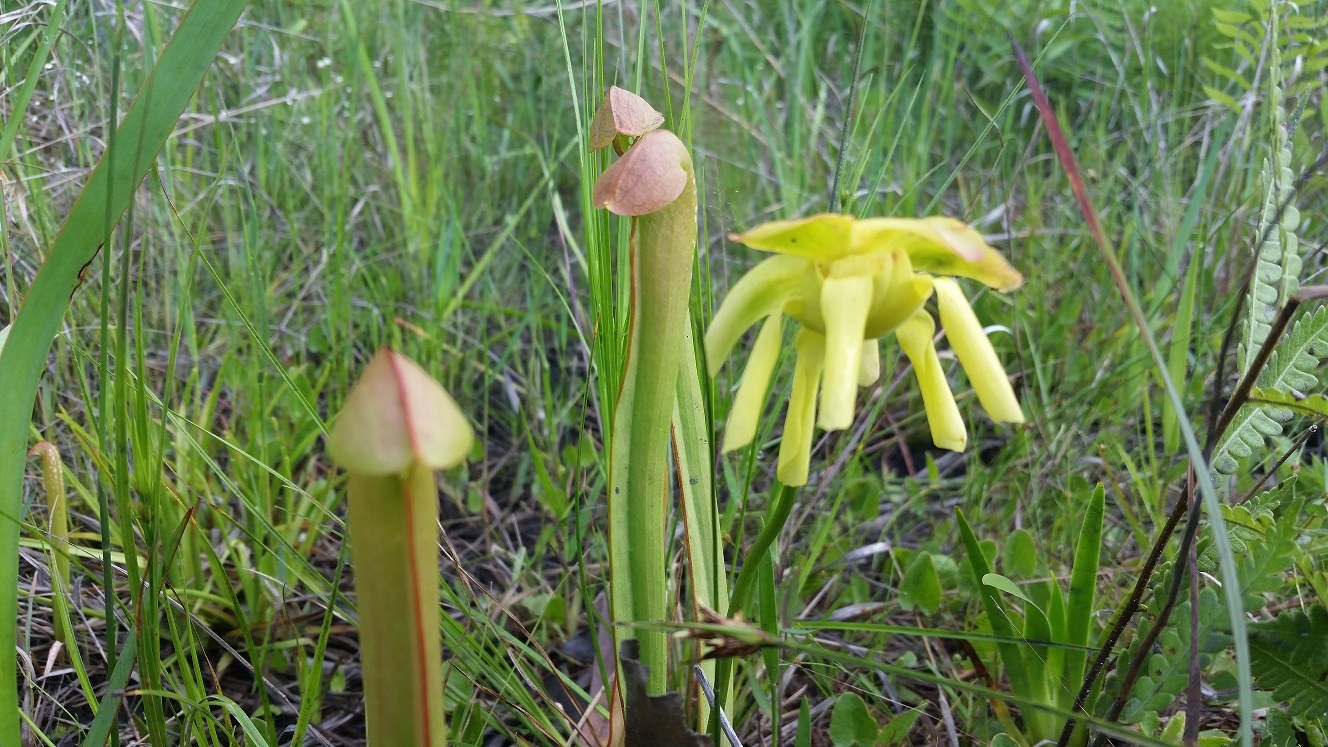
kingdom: Plantae
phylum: Tracheophyta
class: Magnoliopsida
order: Ericales
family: Sarraceniaceae
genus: Sarracenia
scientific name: Sarracenia minor
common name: Rainhat-trumpet
